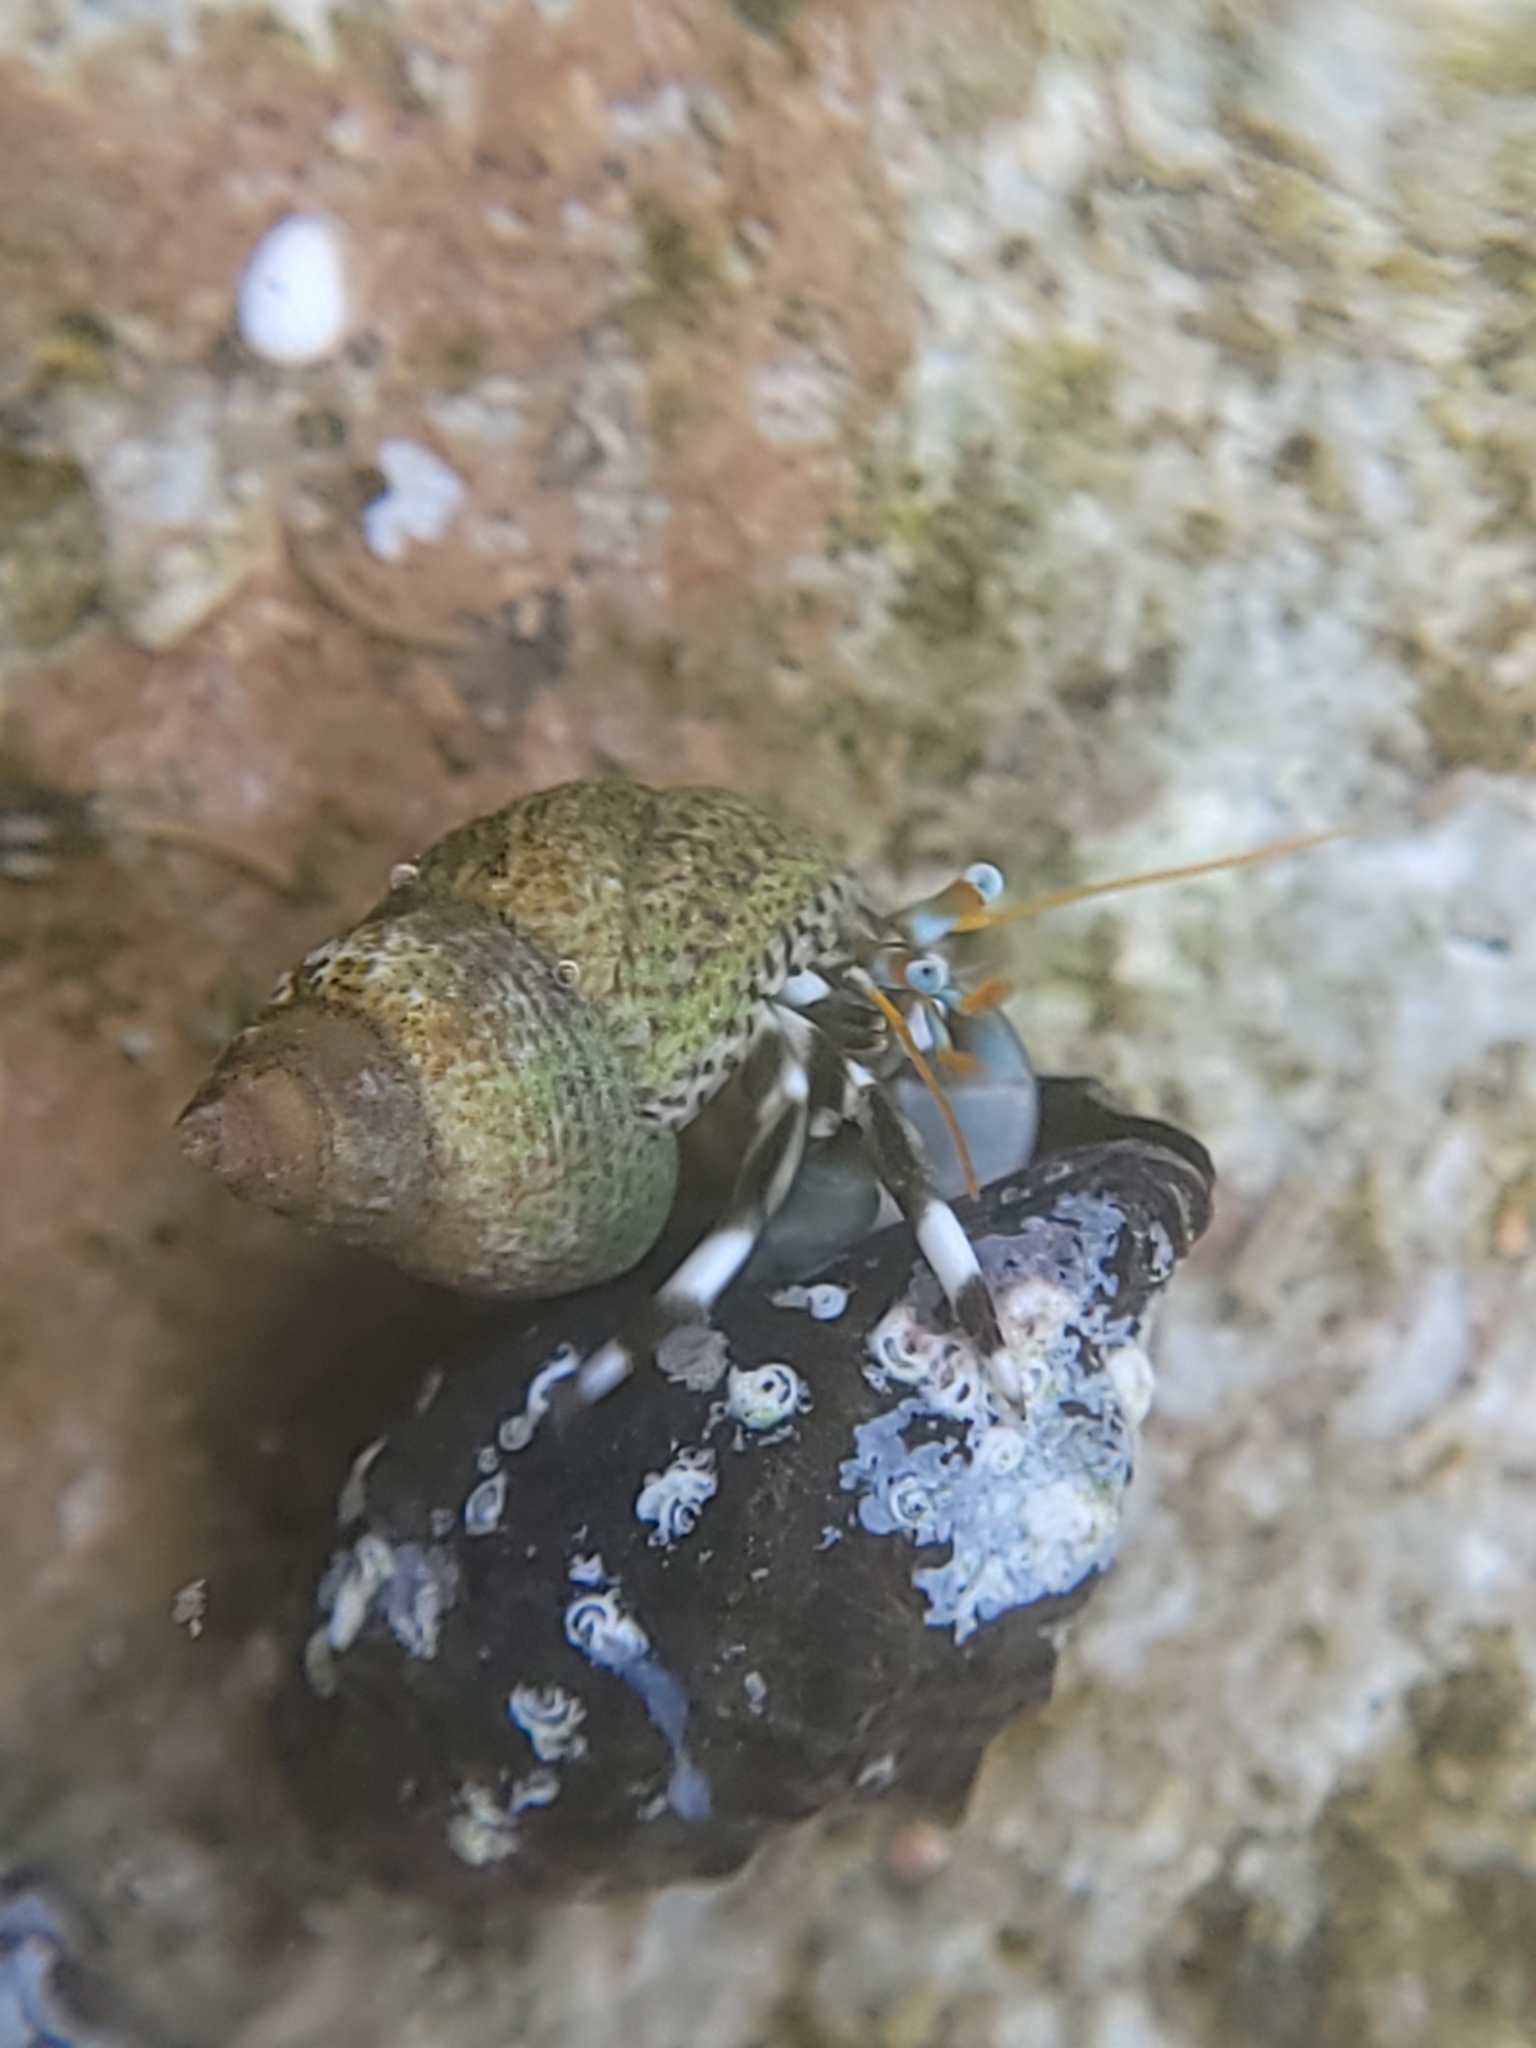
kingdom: Animalia
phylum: Arthropoda
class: Malacostraca
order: Decapoda
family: Diogenidae
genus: Calcinus
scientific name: Calcinus seurati
